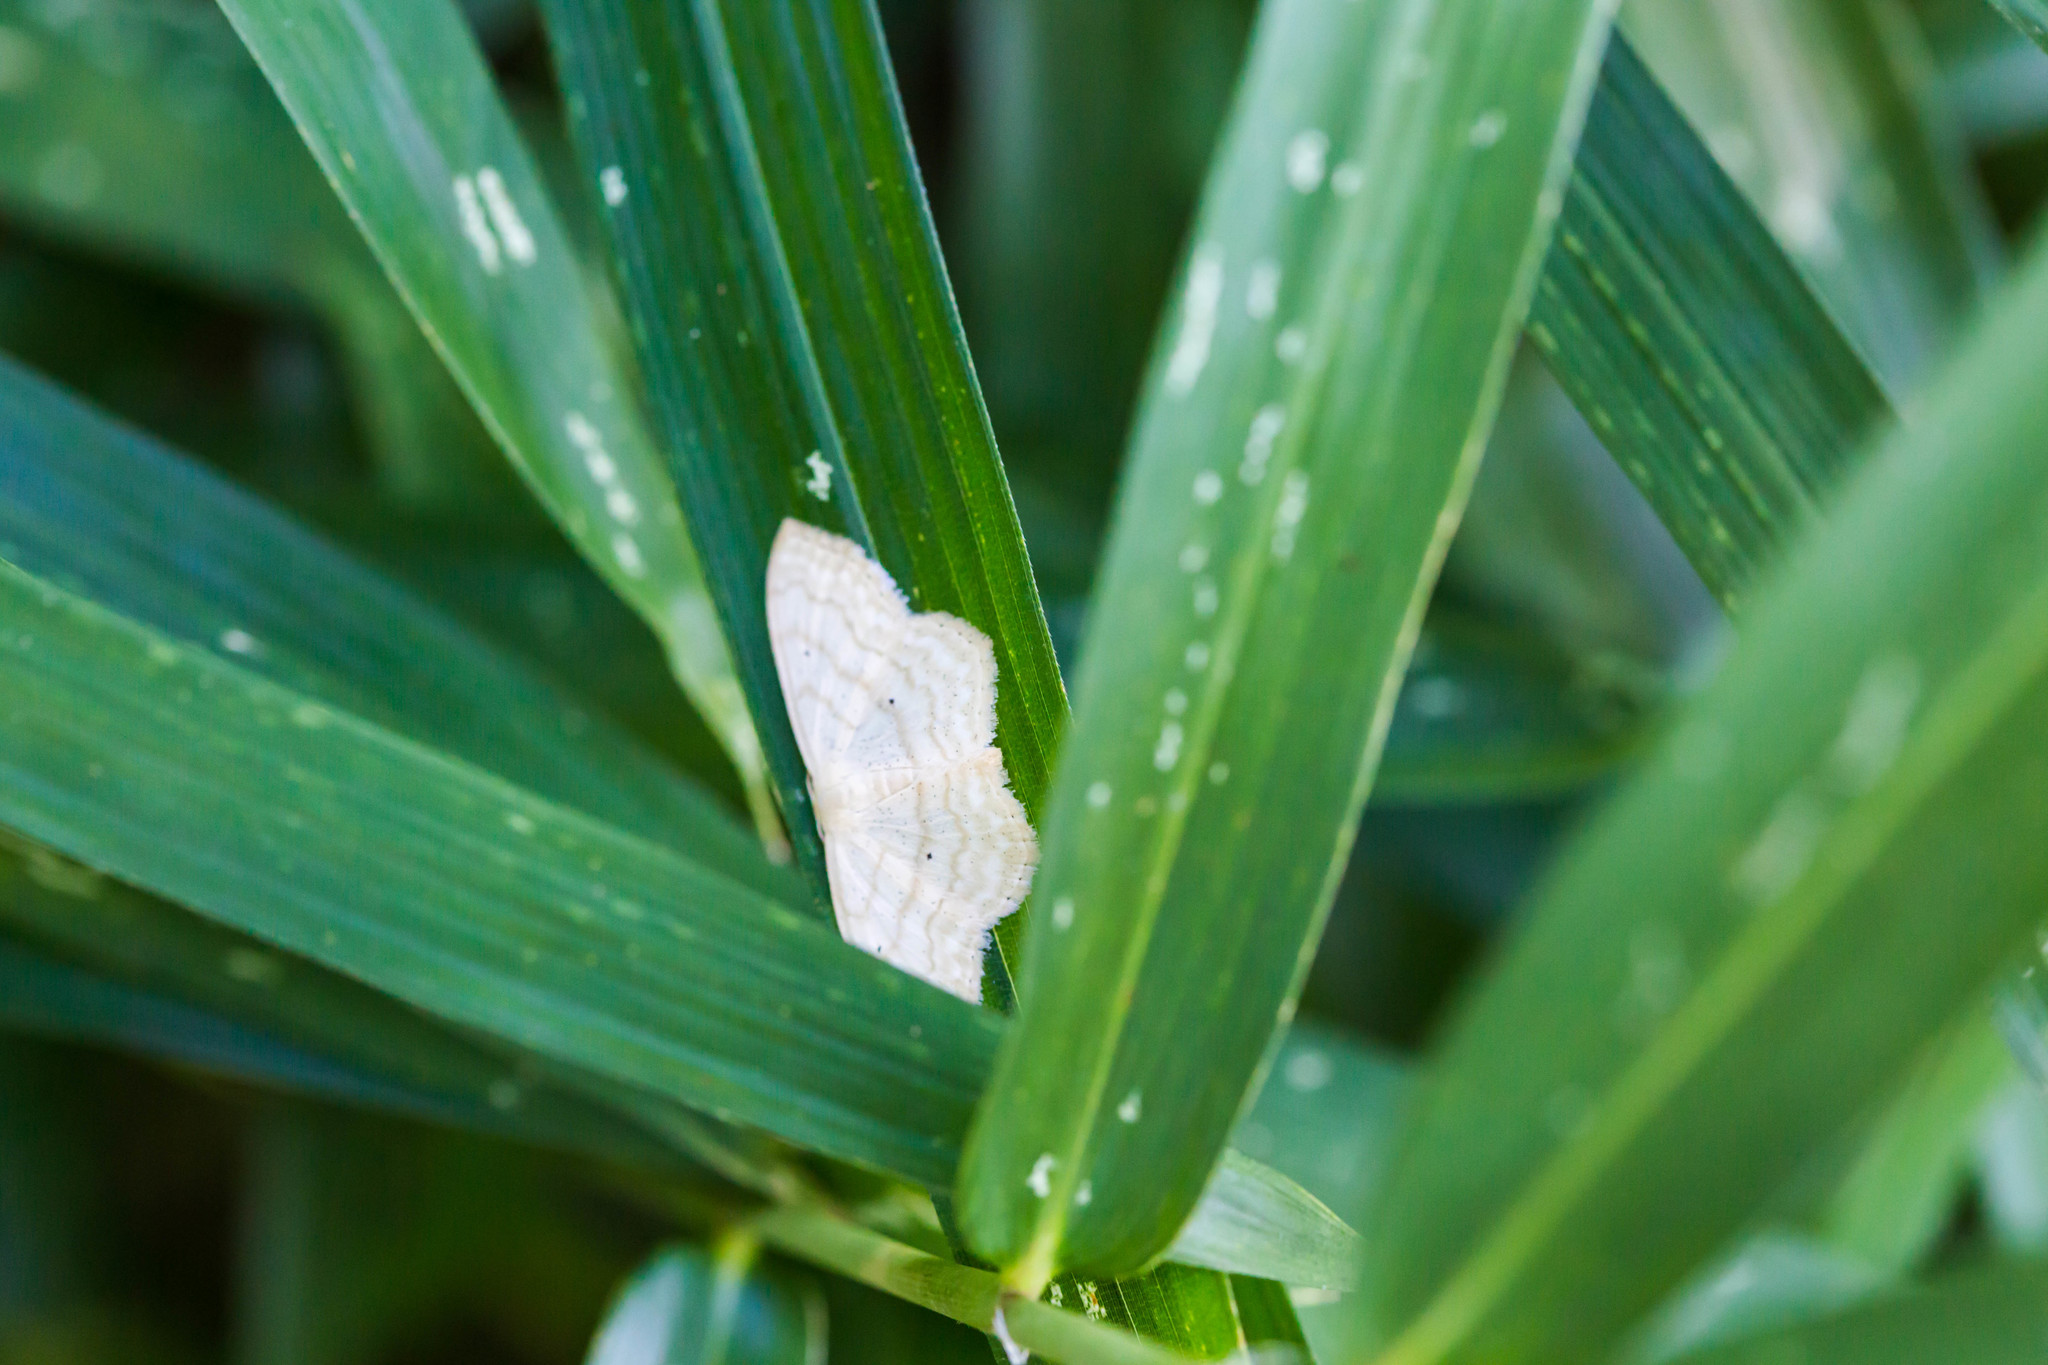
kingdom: Animalia
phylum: Arthropoda
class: Insecta
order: Lepidoptera
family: Geometridae
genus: Scopula
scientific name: Scopula limboundata
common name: Large lace border
